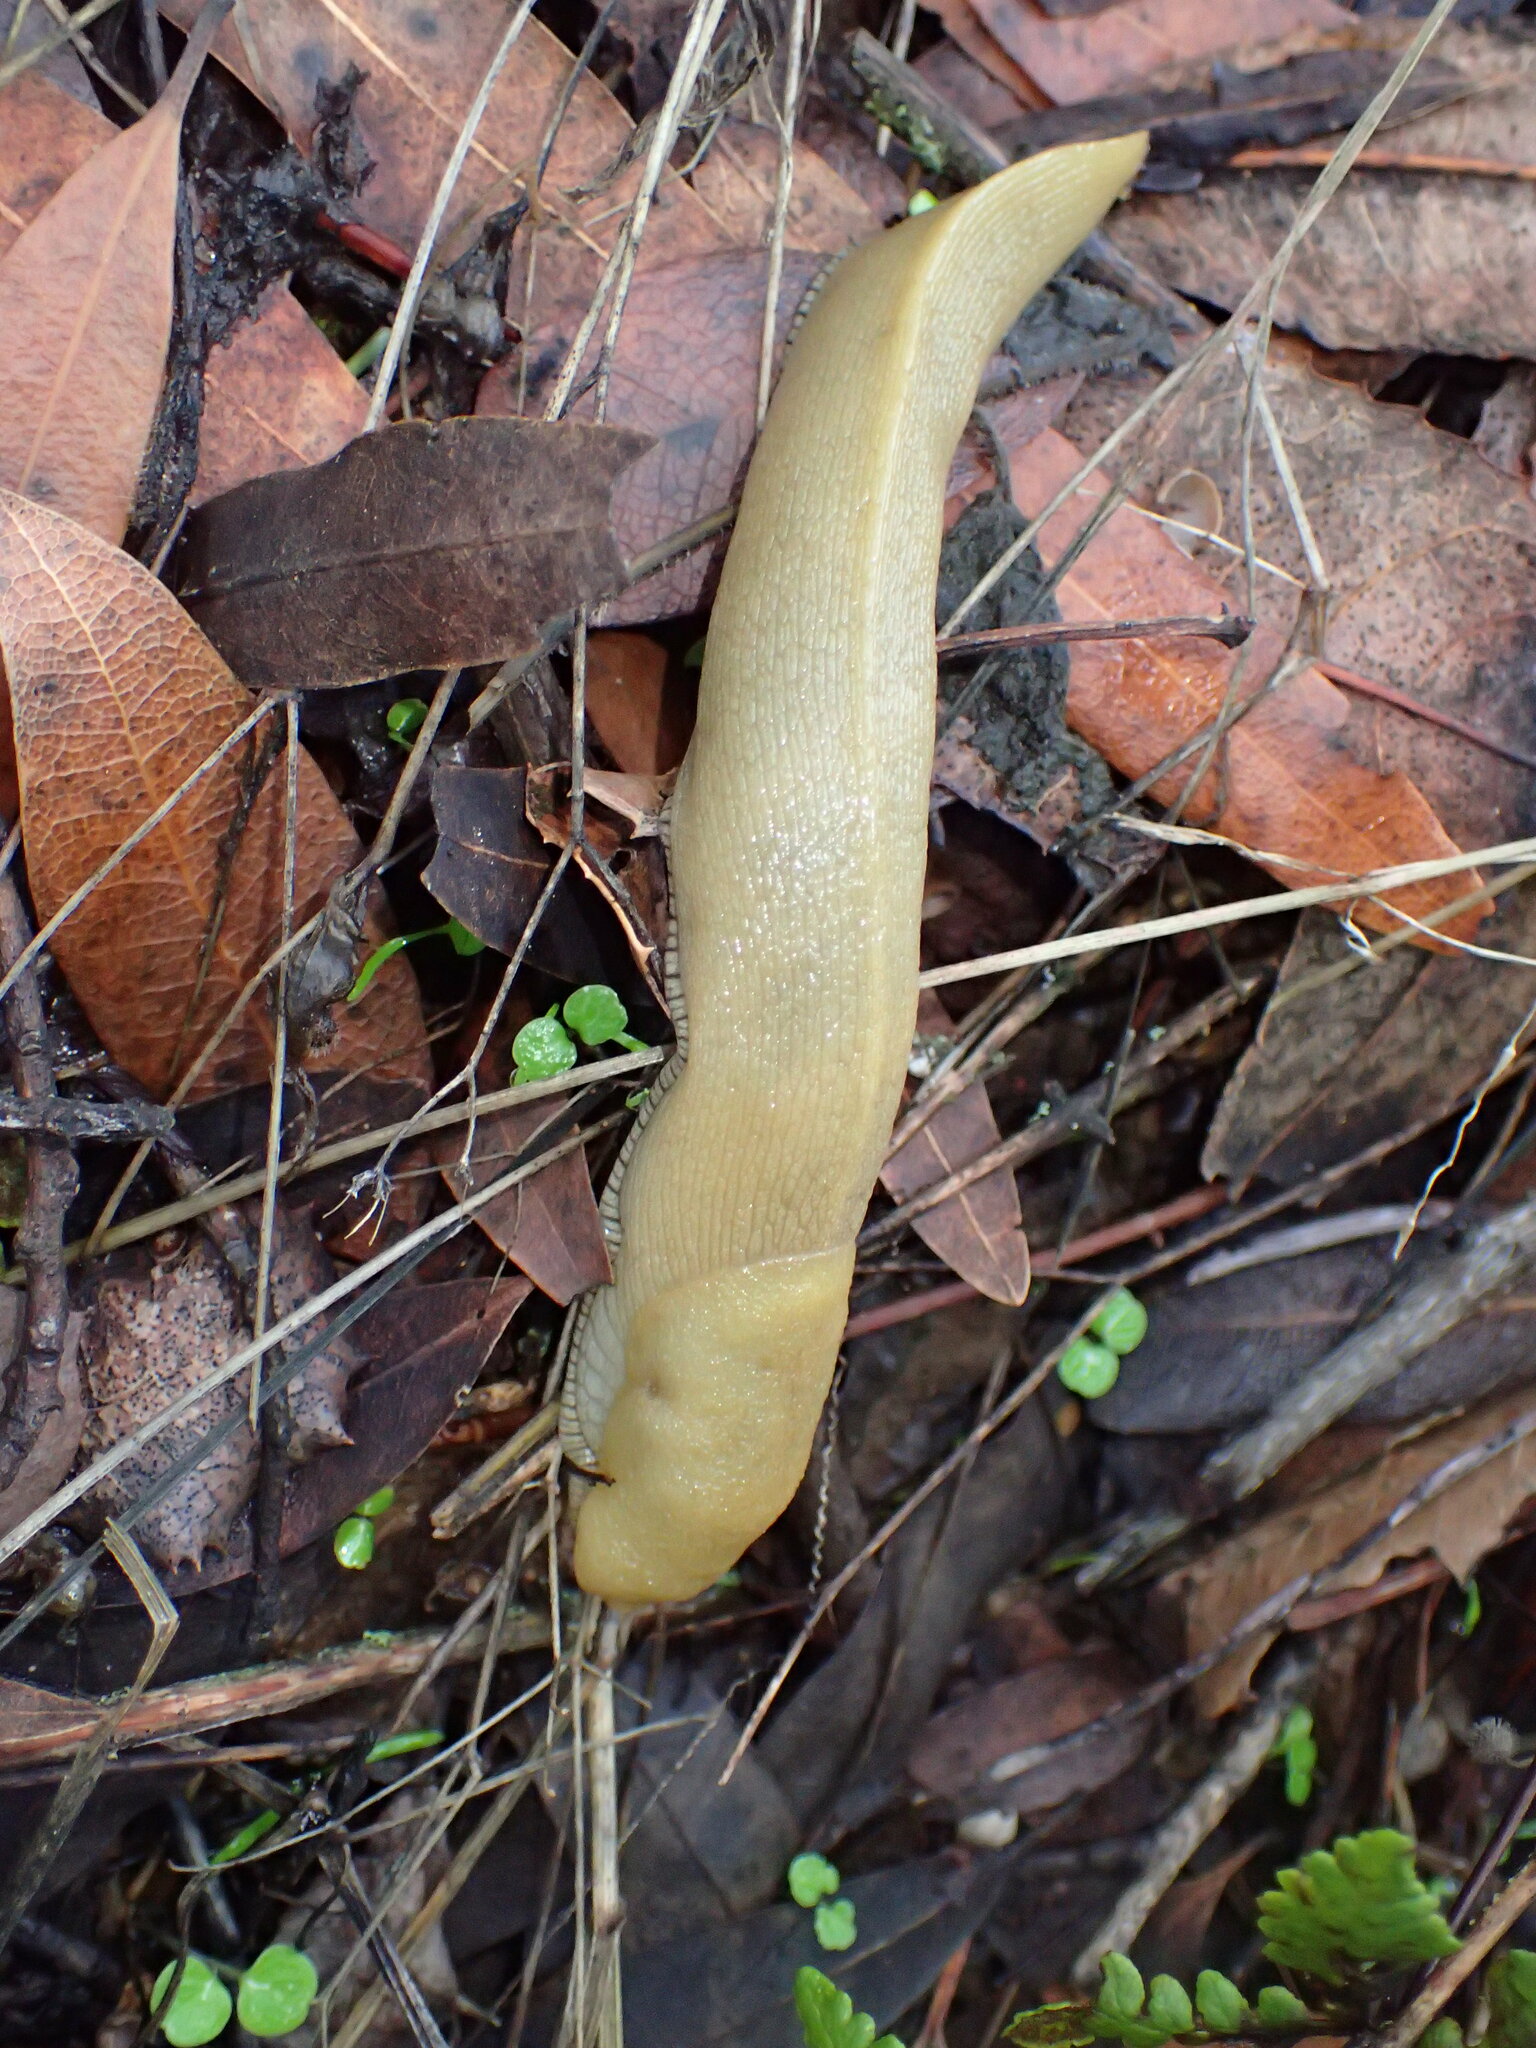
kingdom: Animalia
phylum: Mollusca
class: Gastropoda
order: Stylommatophora
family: Ariolimacidae
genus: Ariolimax
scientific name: Ariolimax stramineus
